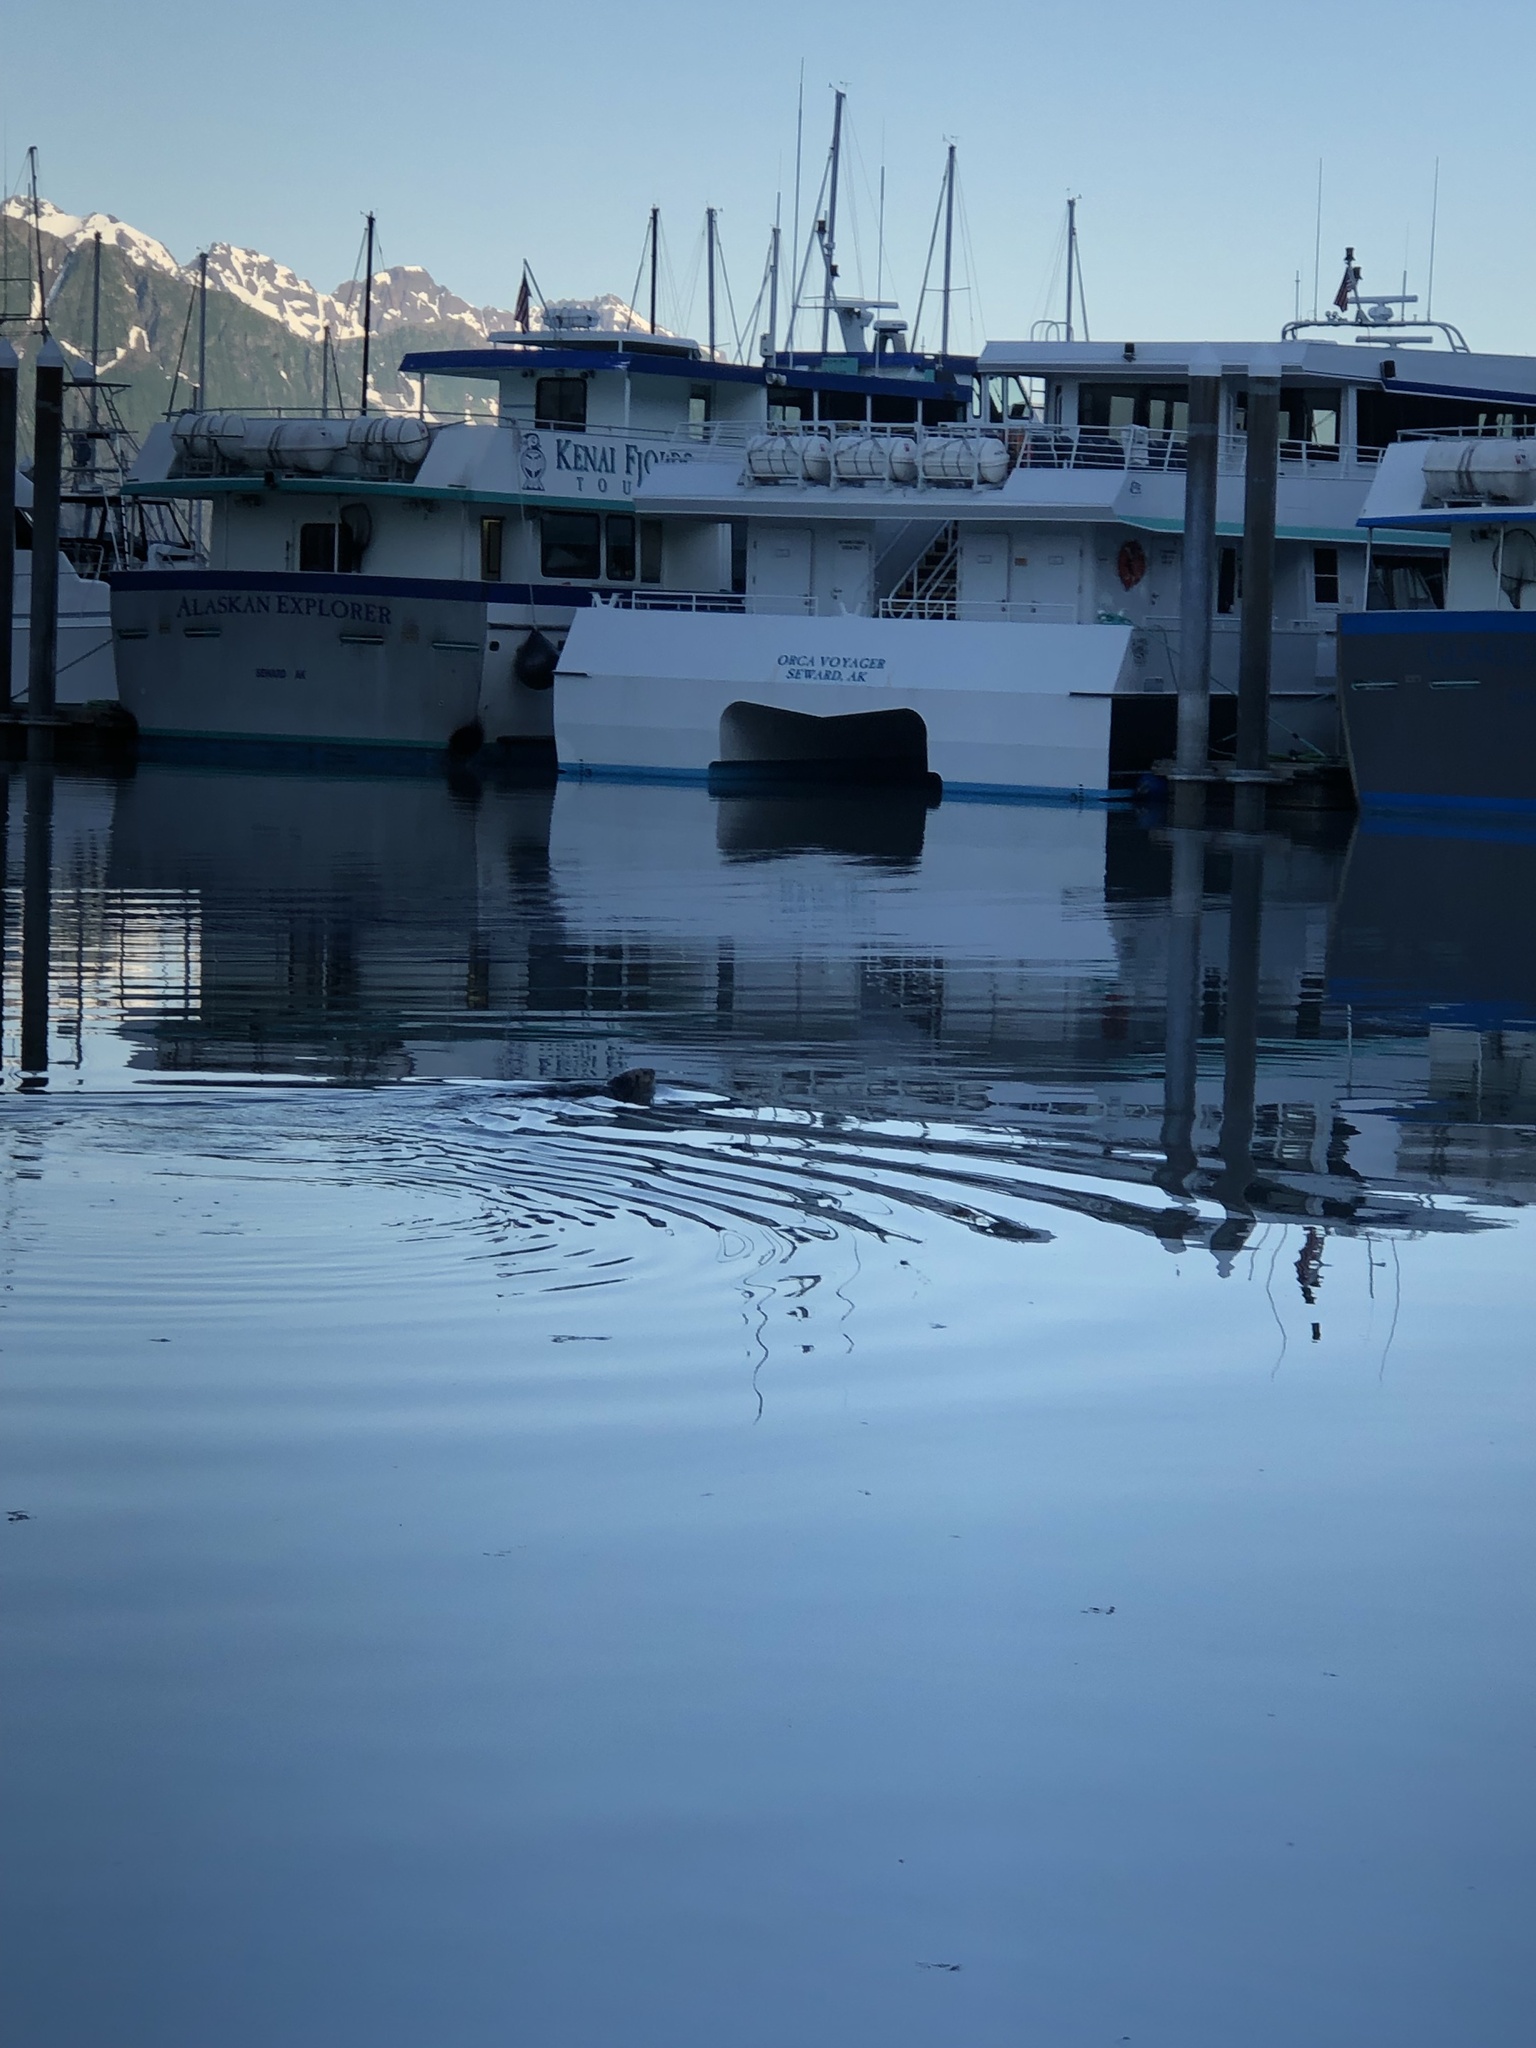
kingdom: Animalia
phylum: Chordata
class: Mammalia
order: Carnivora
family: Mustelidae
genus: Enhydra
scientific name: Enhydra lutris
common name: Sea otter
